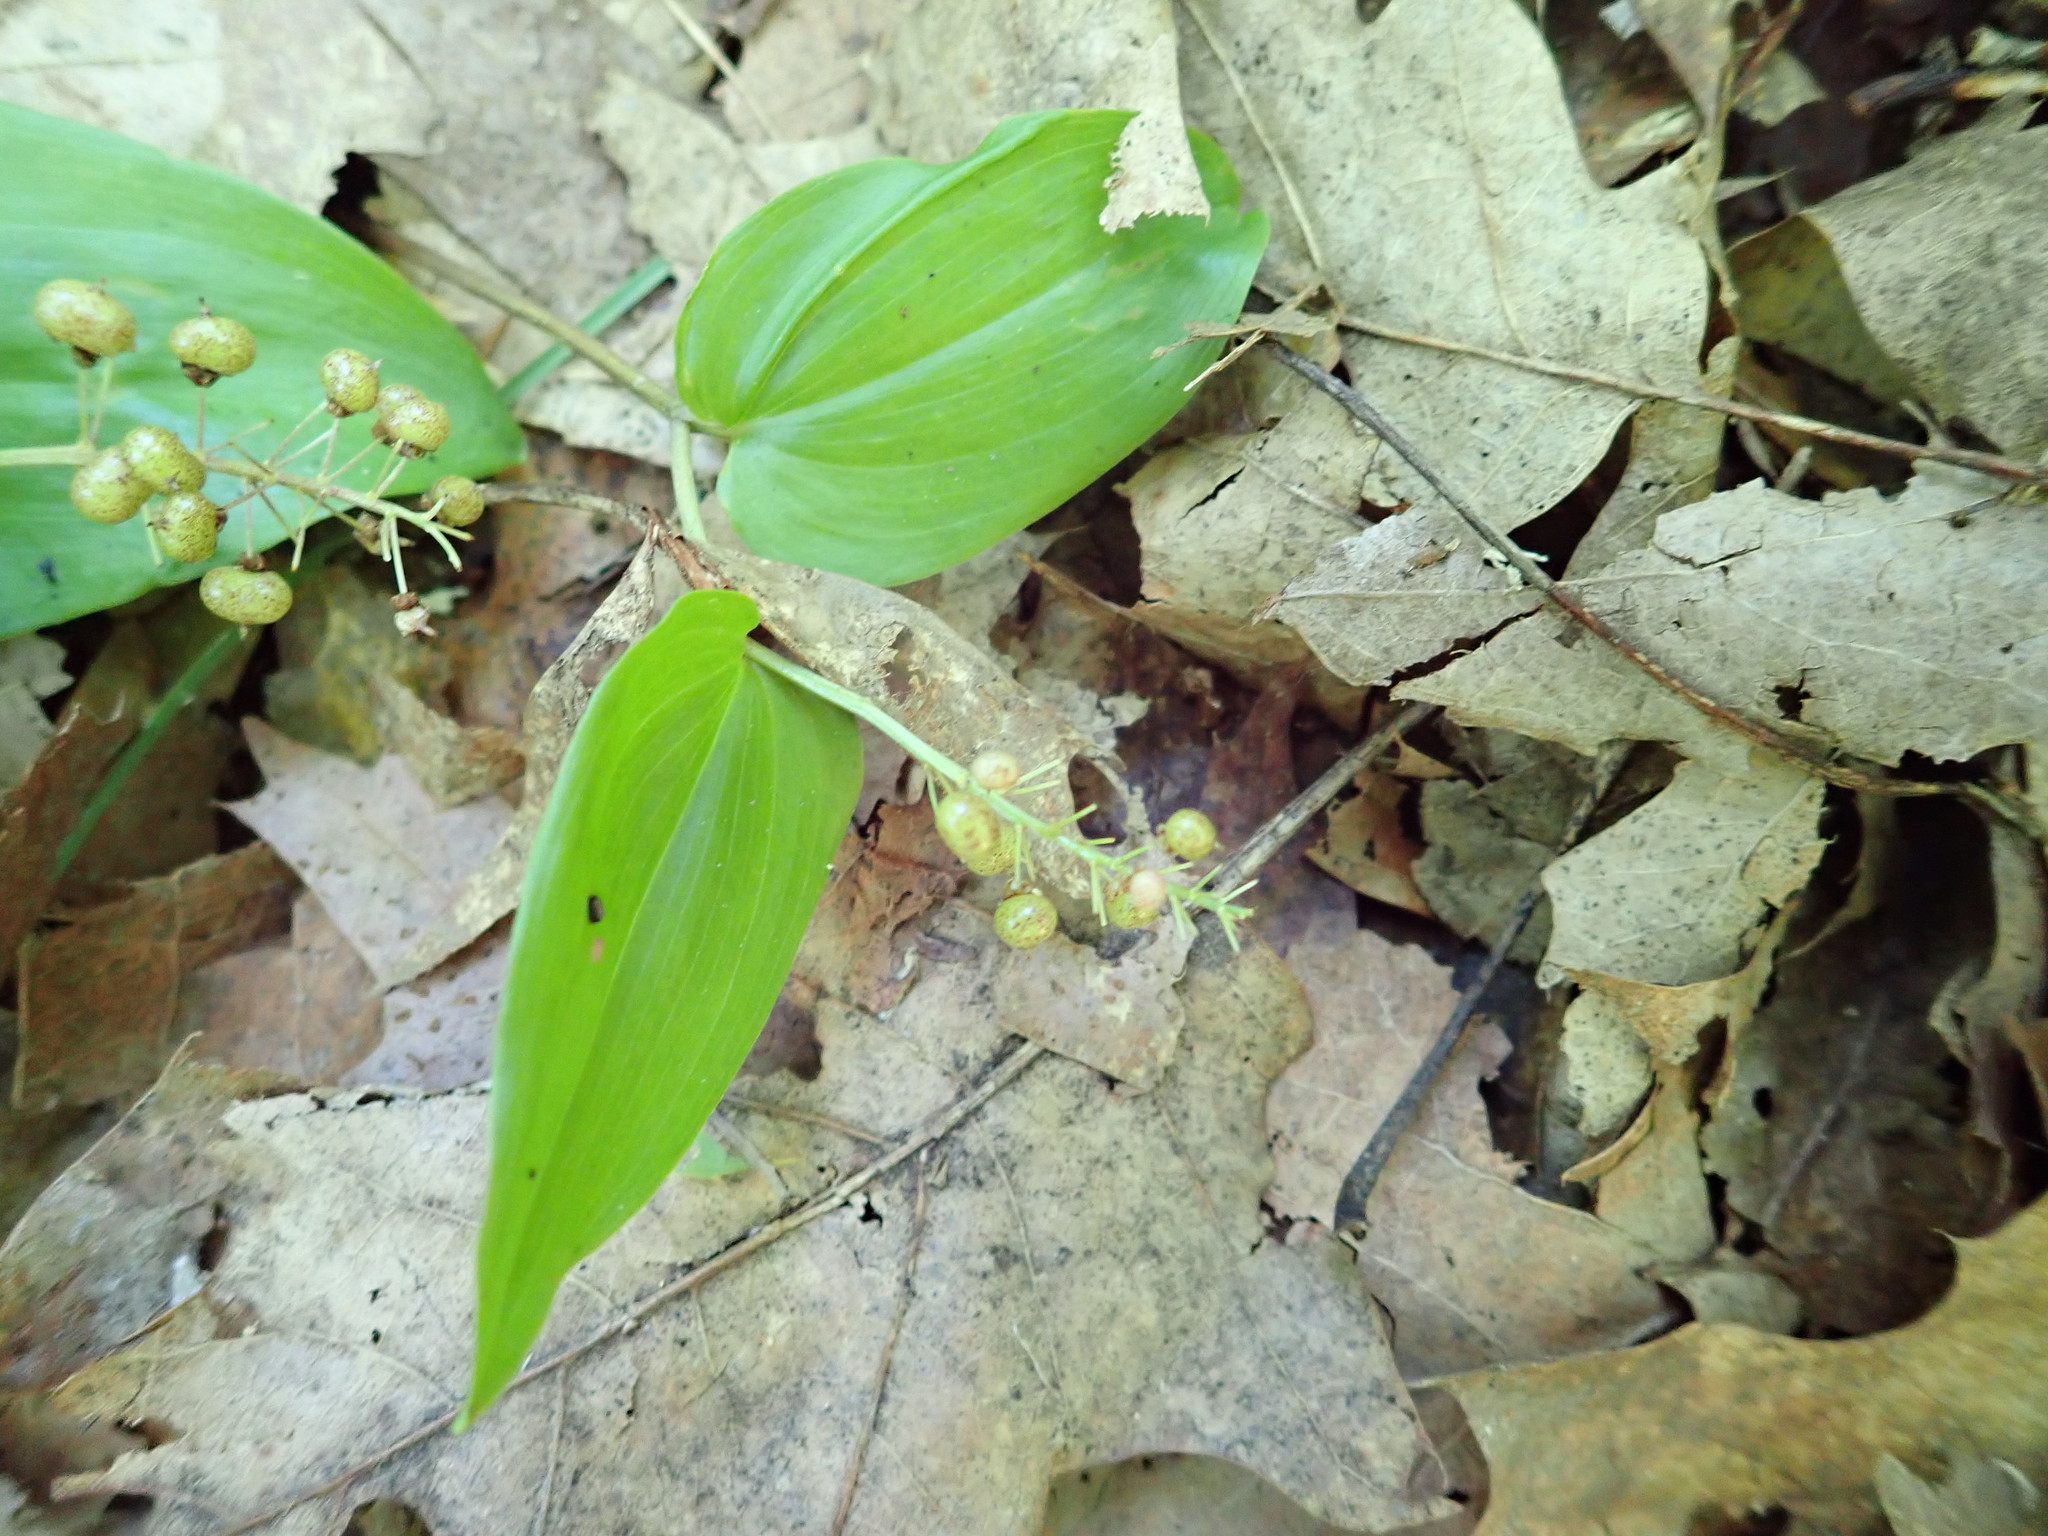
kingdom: Plantae
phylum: Tracheophyta
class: Liliopsida
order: Asparagales
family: Asparagaceae
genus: Maianthemum
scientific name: Maianthemum canadense
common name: False lily-of-the-valley
